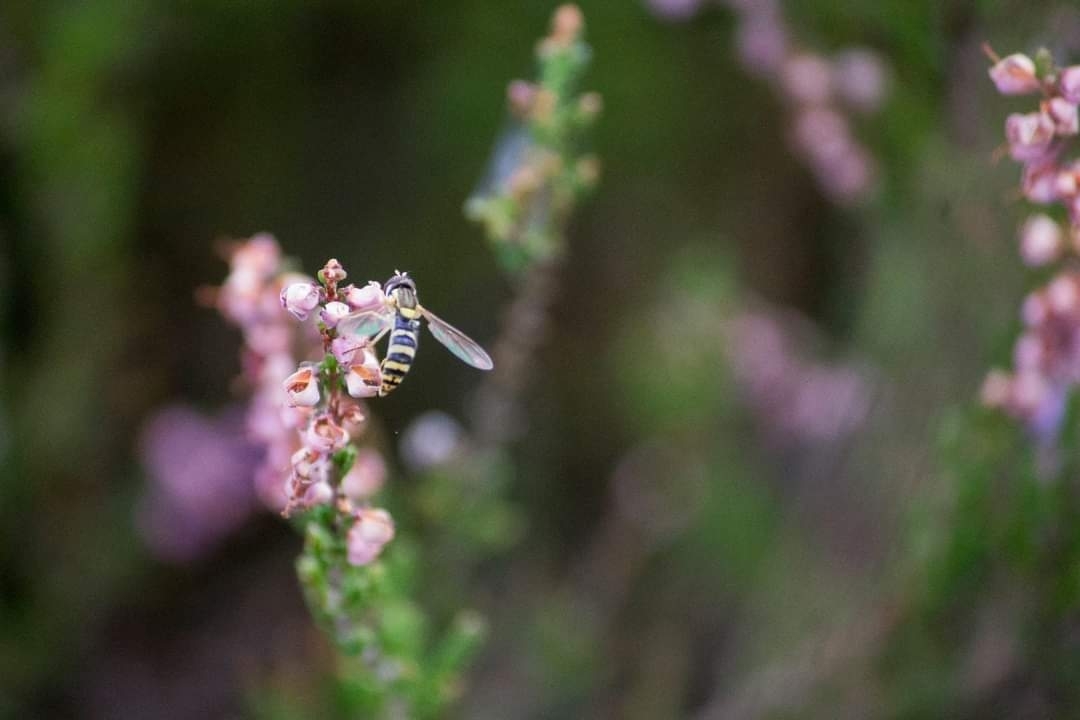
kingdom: Animalia
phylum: Arthropoda
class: Insecta
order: Diptera
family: Syrphidae
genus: Sphaerophoria
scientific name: Sphaerophoria
